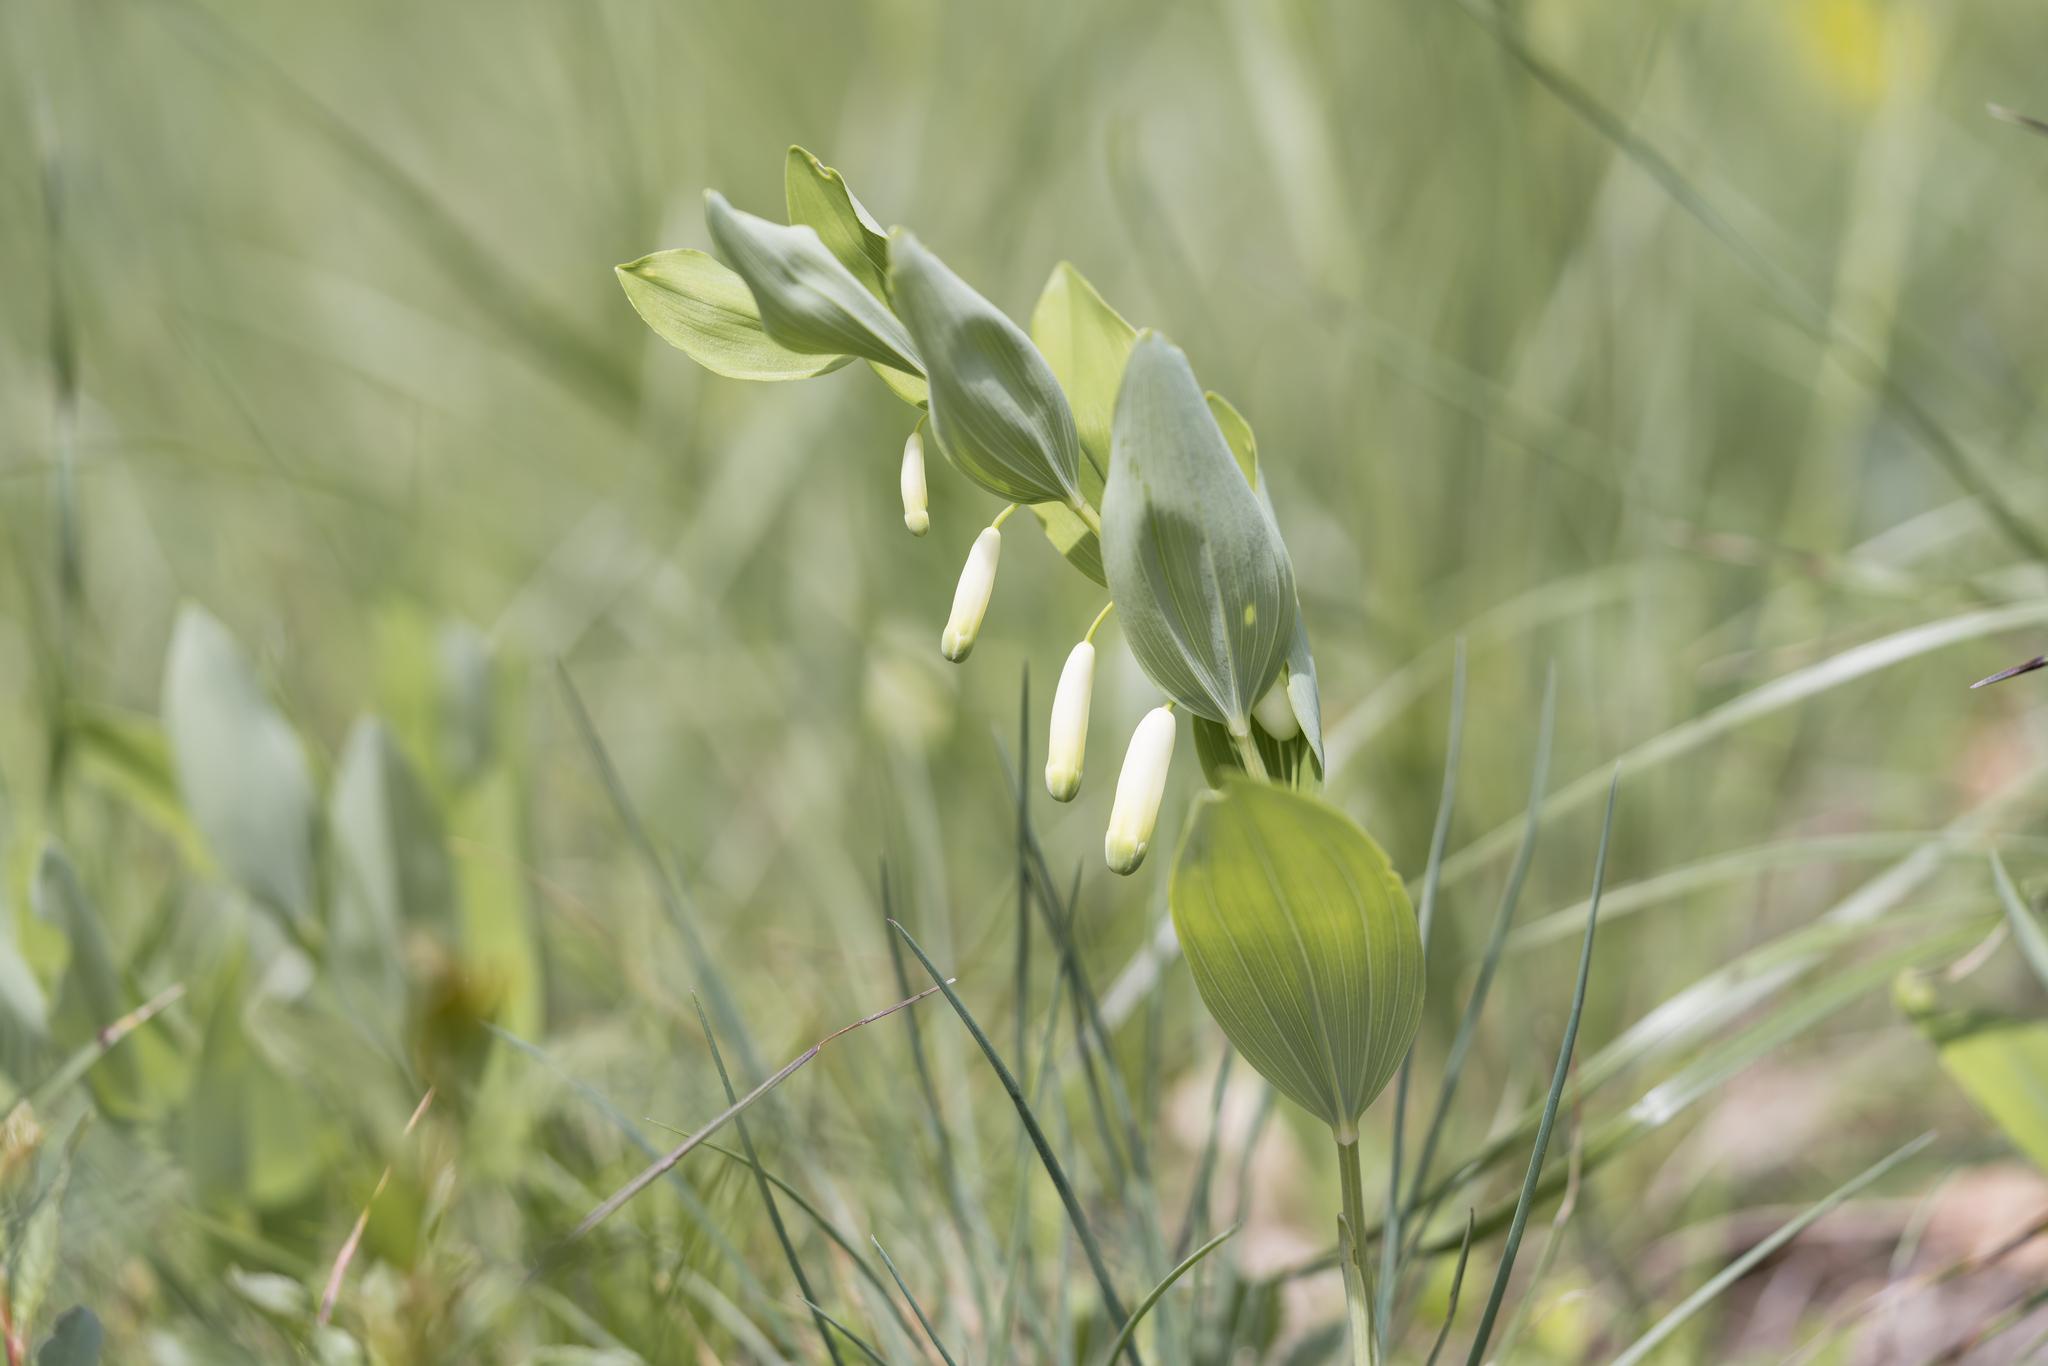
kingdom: Plantae
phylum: Tracheophyta
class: Liliopsida
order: Asparagales
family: Asparagaceae
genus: Polygonatum
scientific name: Polygonatum odoratum
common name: Angular solomon's-seal
